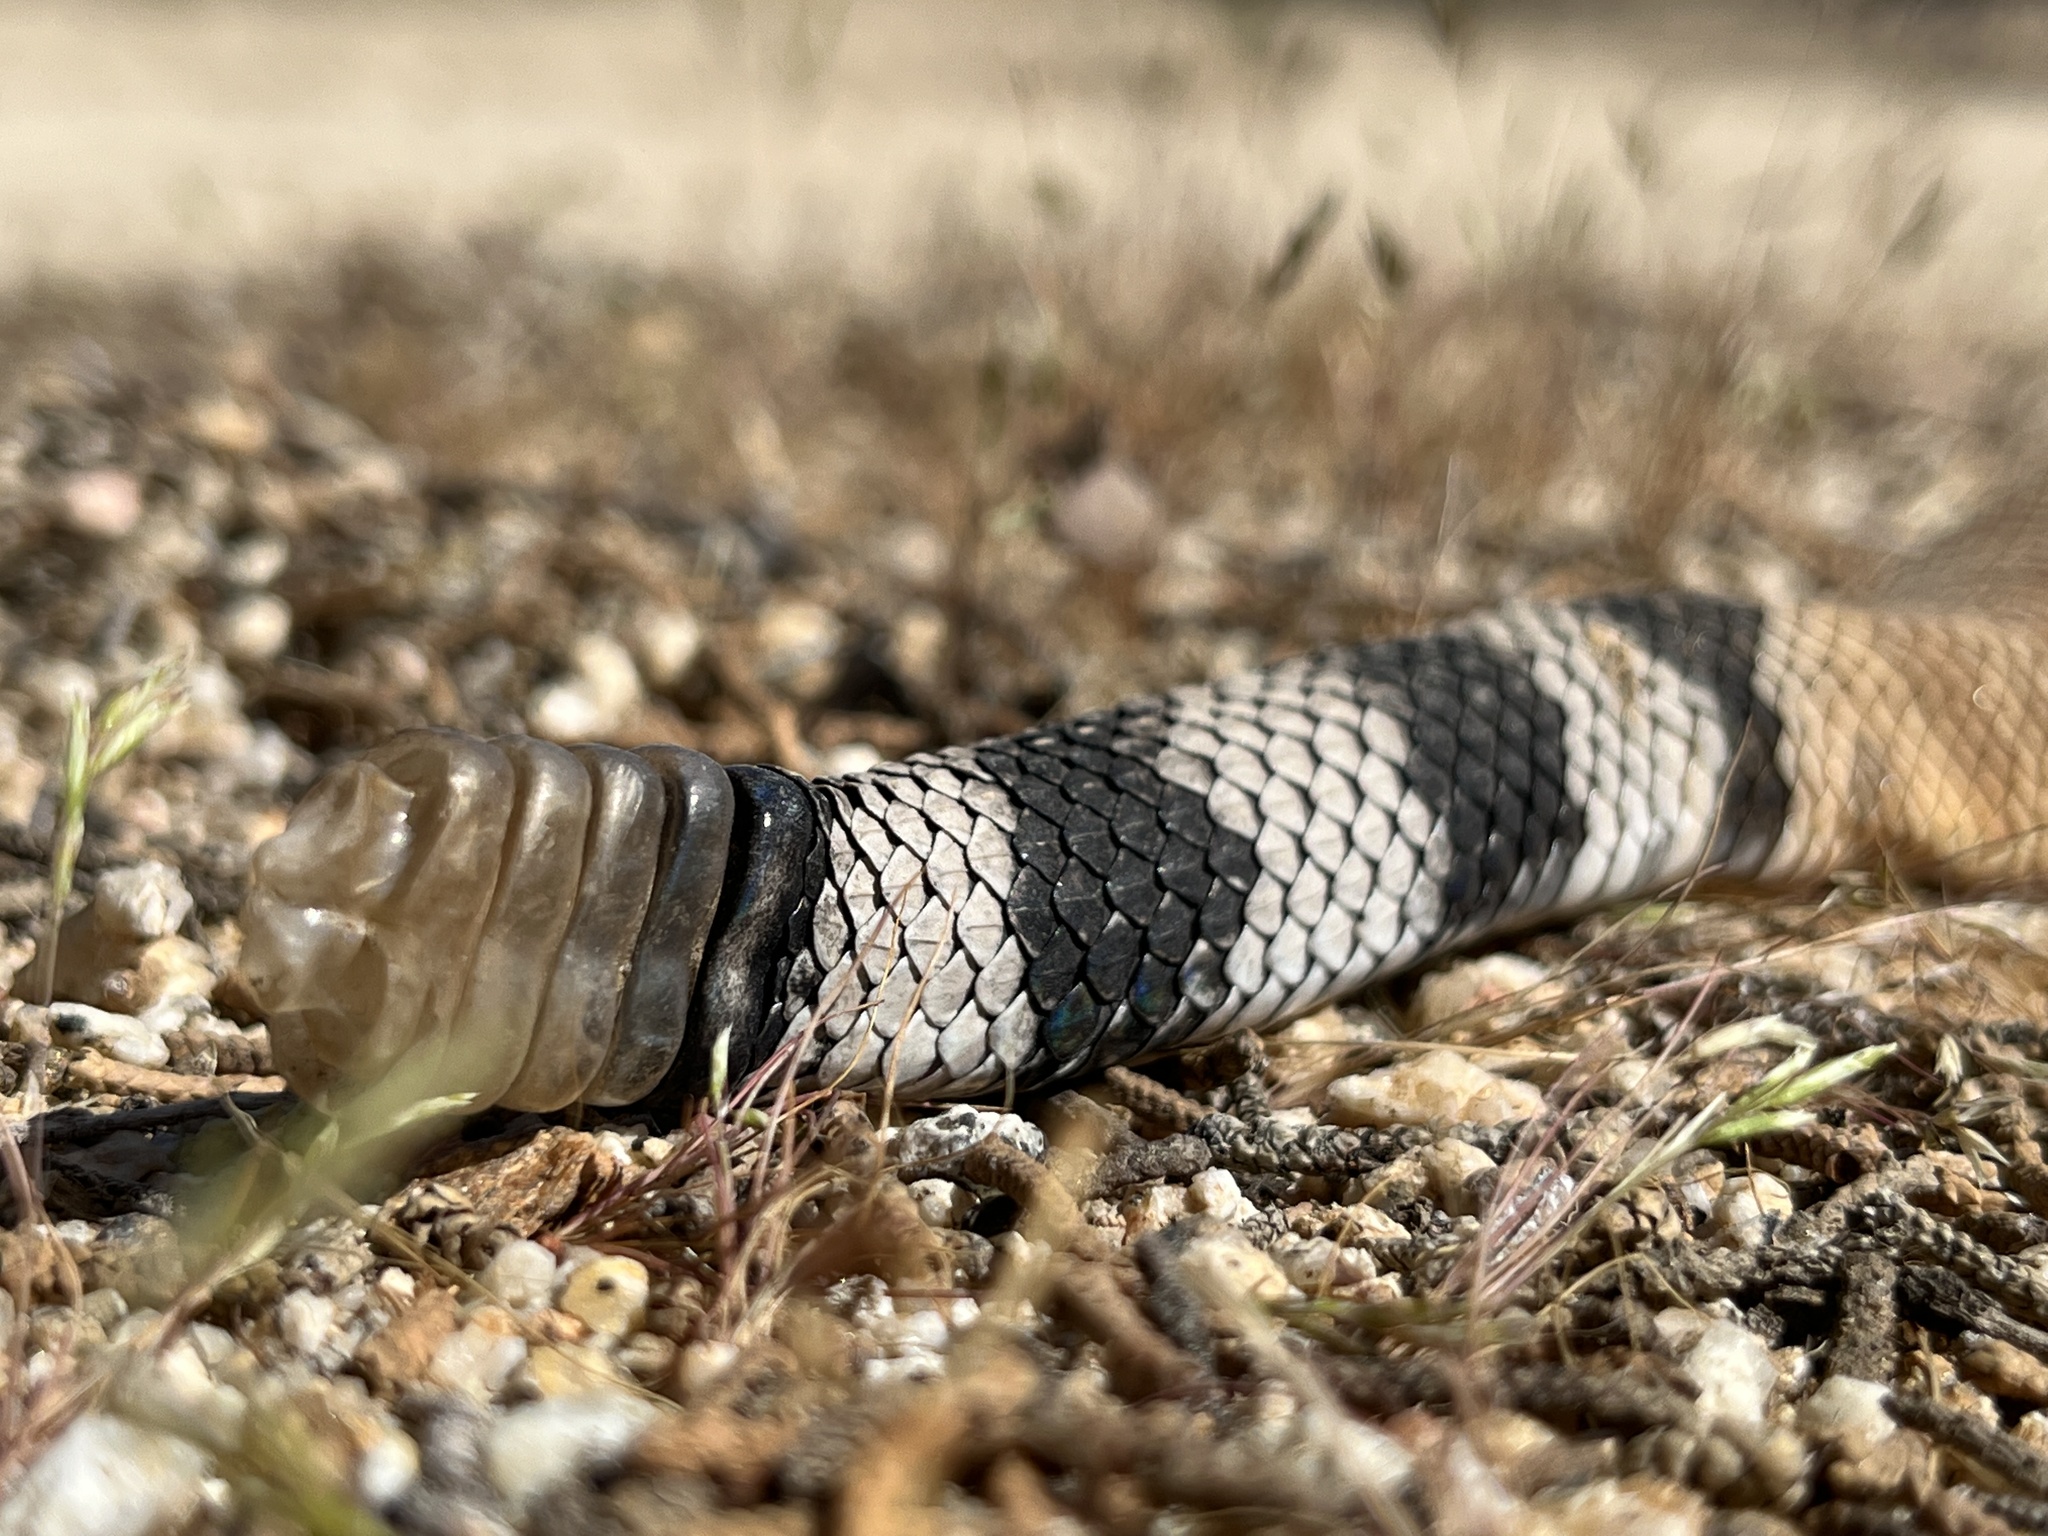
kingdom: Animalia
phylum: Chordata
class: Squamata
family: Viperidae
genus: Crotalus
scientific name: Crotalus ruber
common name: Red diamond rattlesnake
